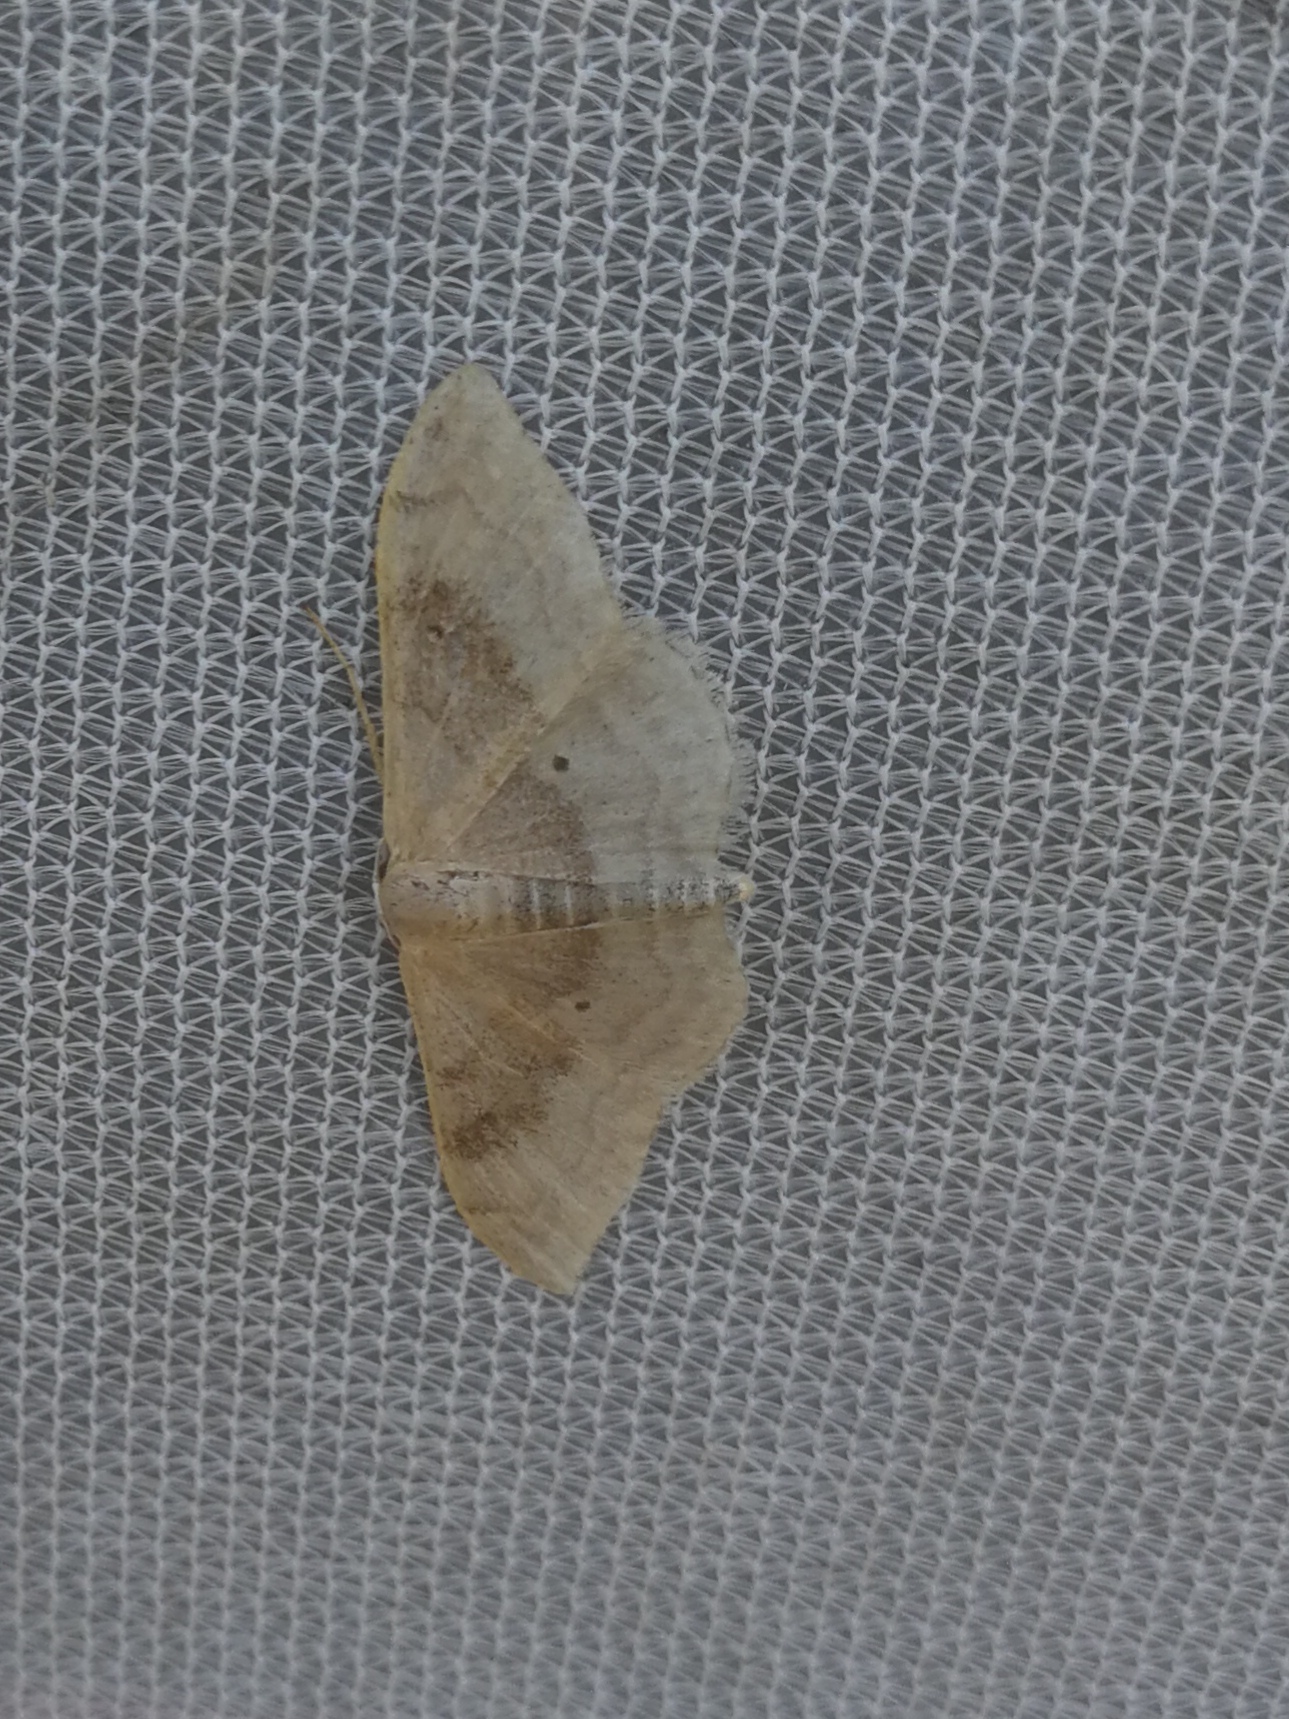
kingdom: Animalia
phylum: Arthropoda
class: Insecta
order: Lepidoptera
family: Geometridae
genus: Idaea
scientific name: Idaea degeneraria
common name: Portland ribbon wave
